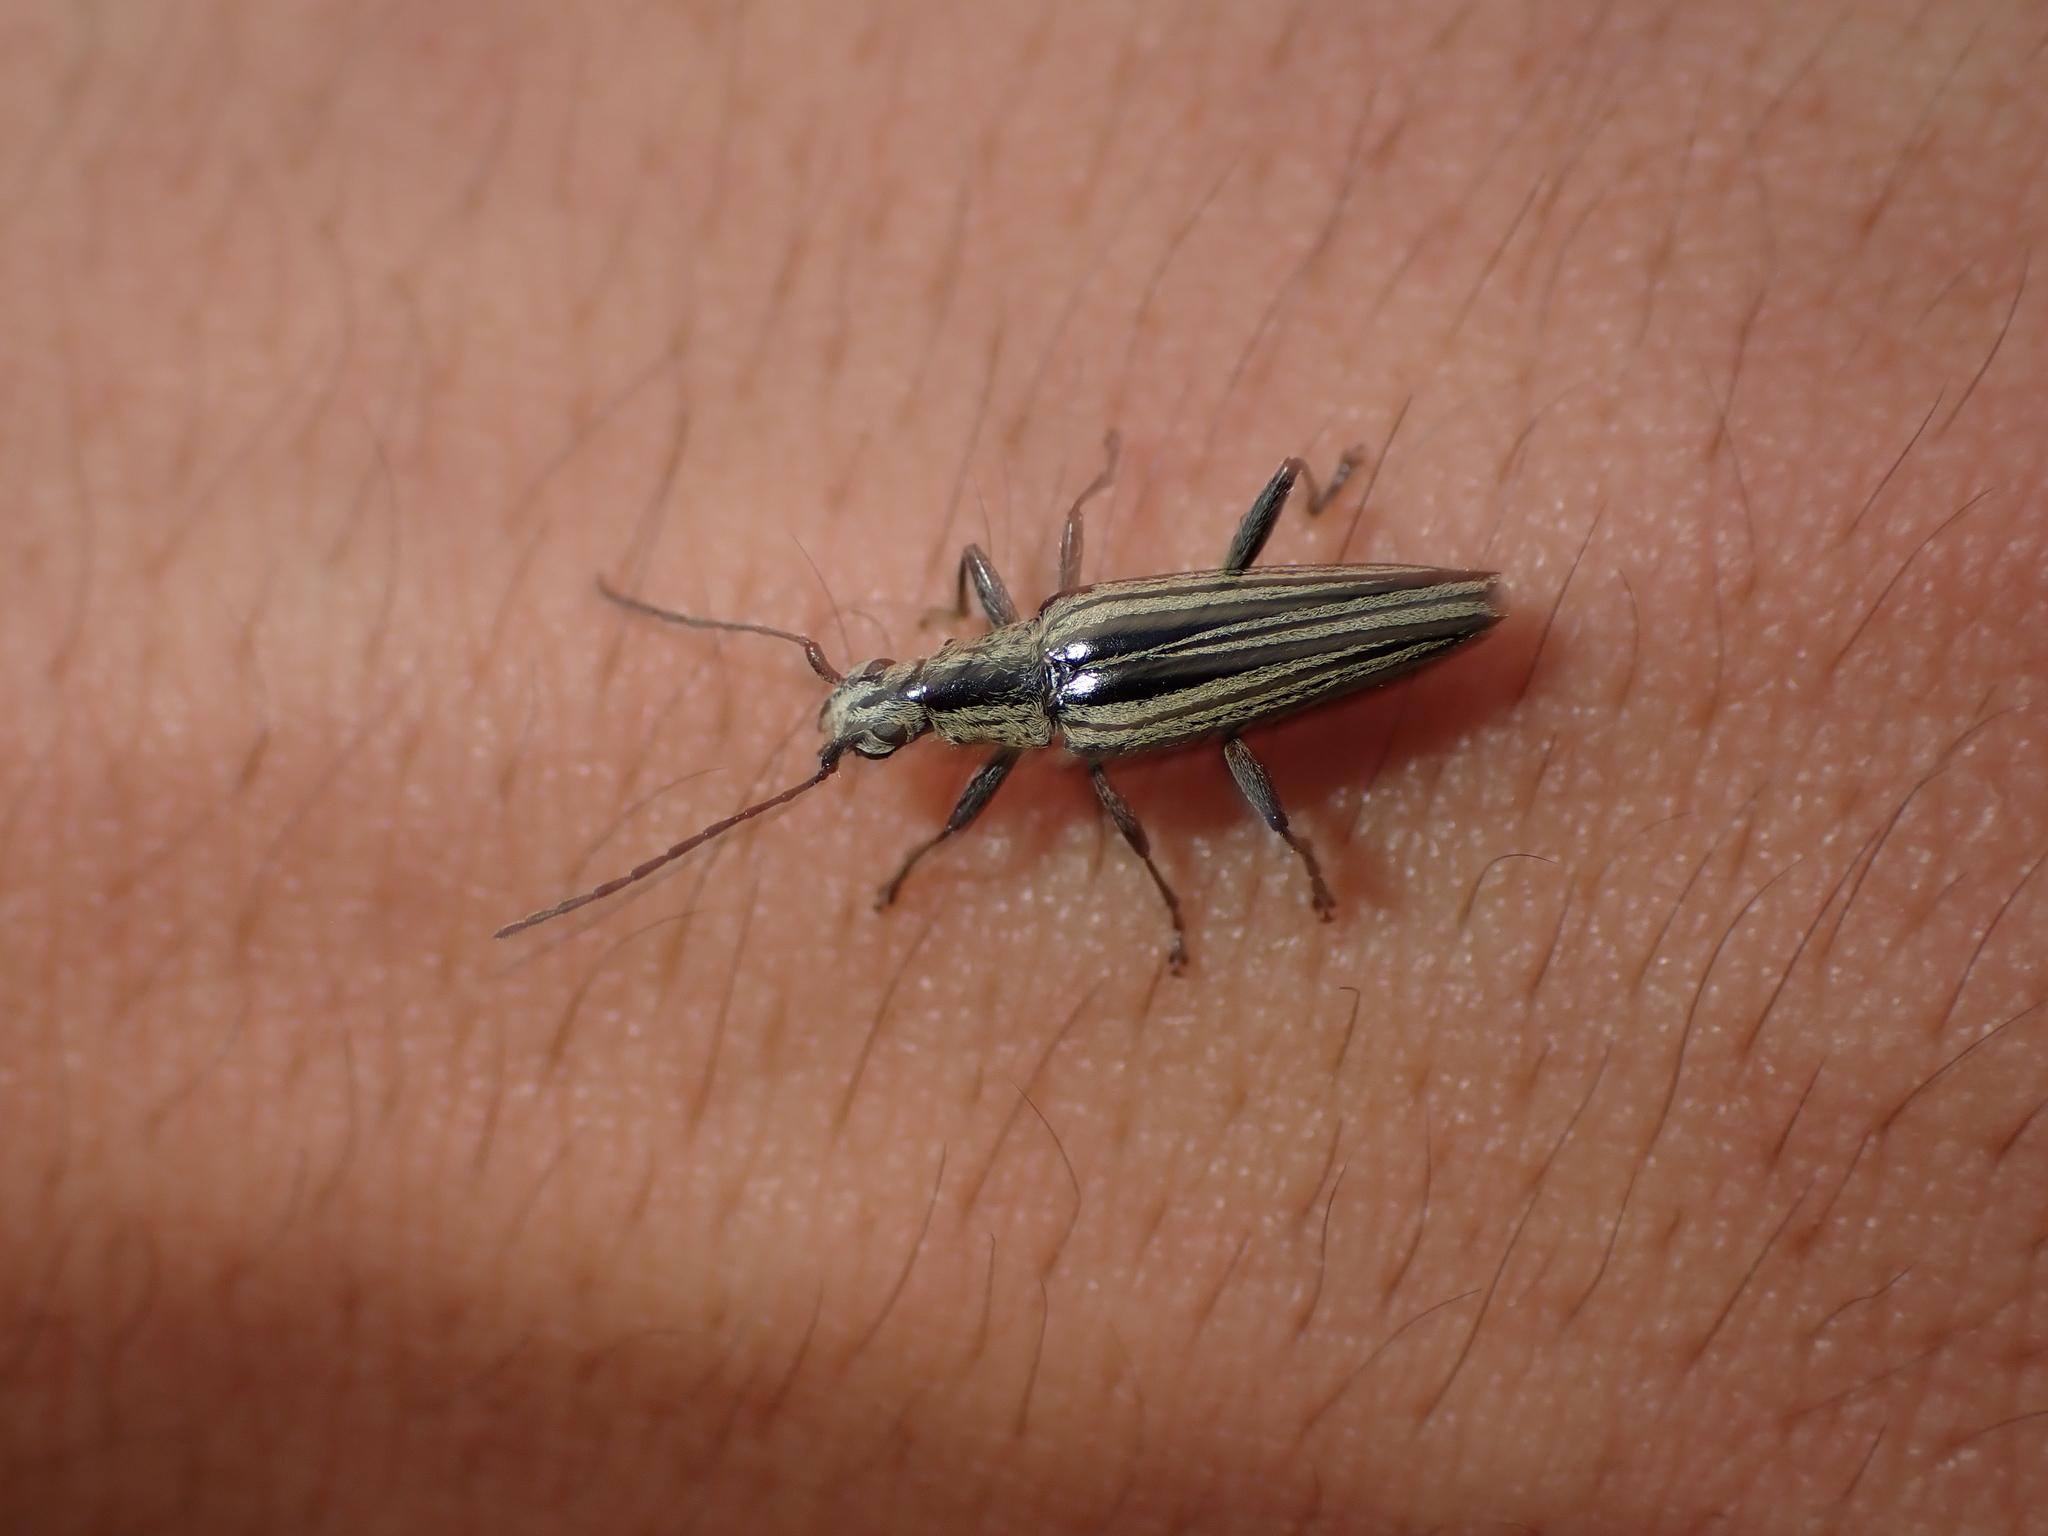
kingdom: Animalia
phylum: Arthropoda
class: Insecta
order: Coleoptera
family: Cerambycidae
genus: Coptomma
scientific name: Coptomma sulcatum
